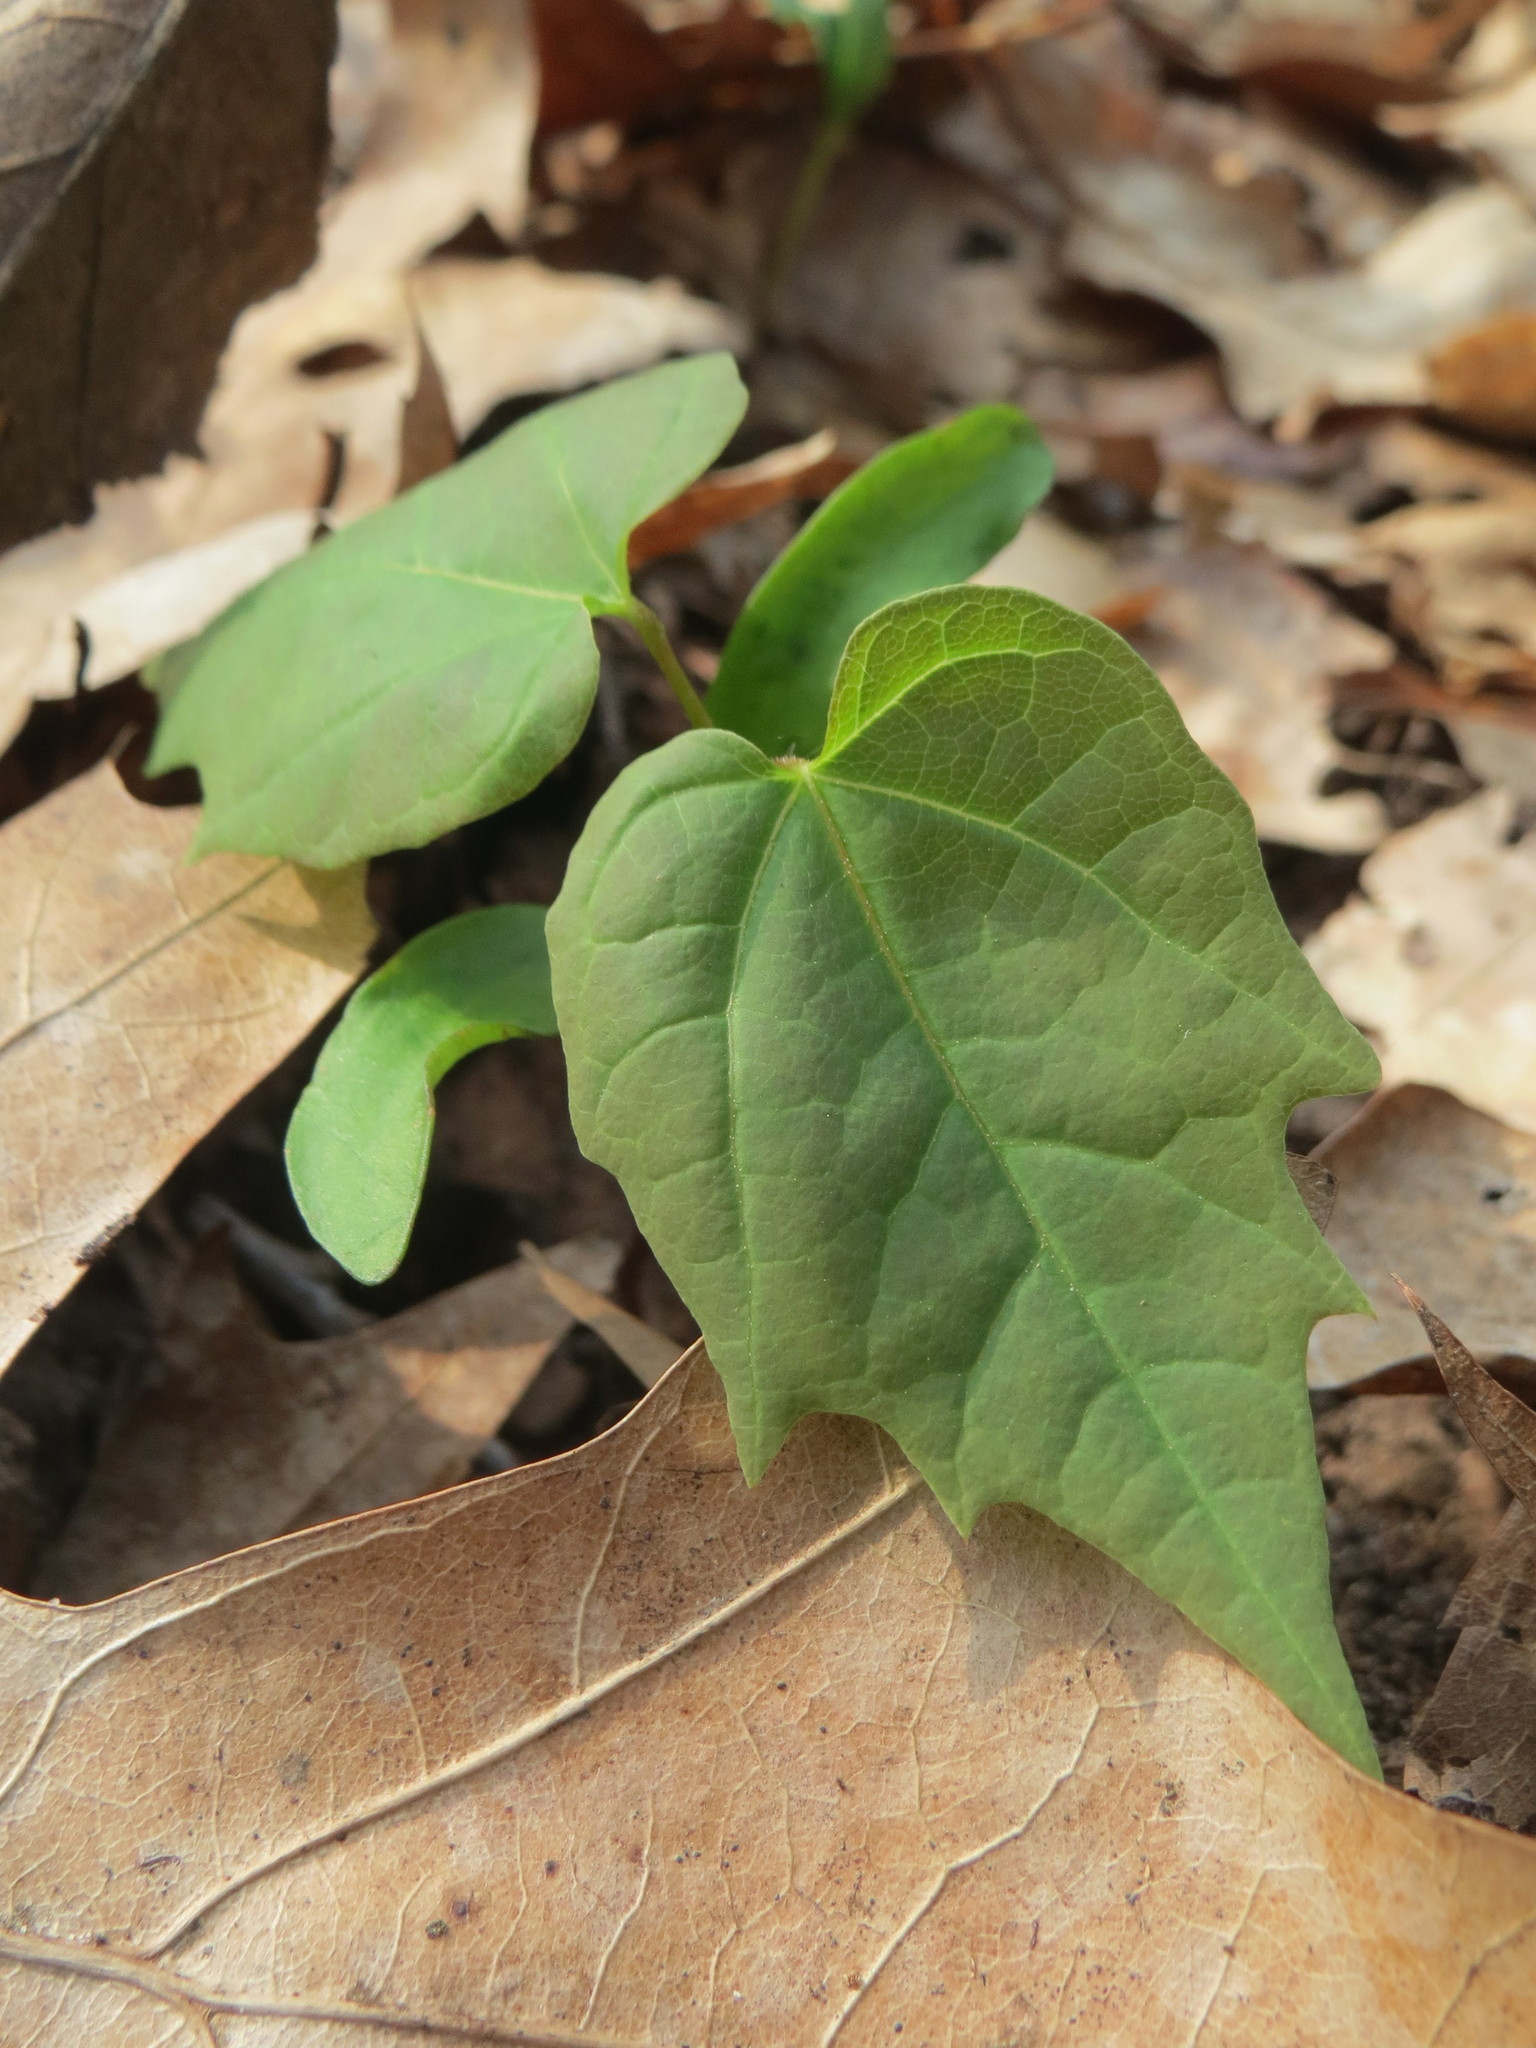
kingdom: Plantae
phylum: Tracheophyta
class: Magnoliopsida
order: Sapindales
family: Sapindaceae
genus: Acer
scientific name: Acer platanoides
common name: Norway maple
